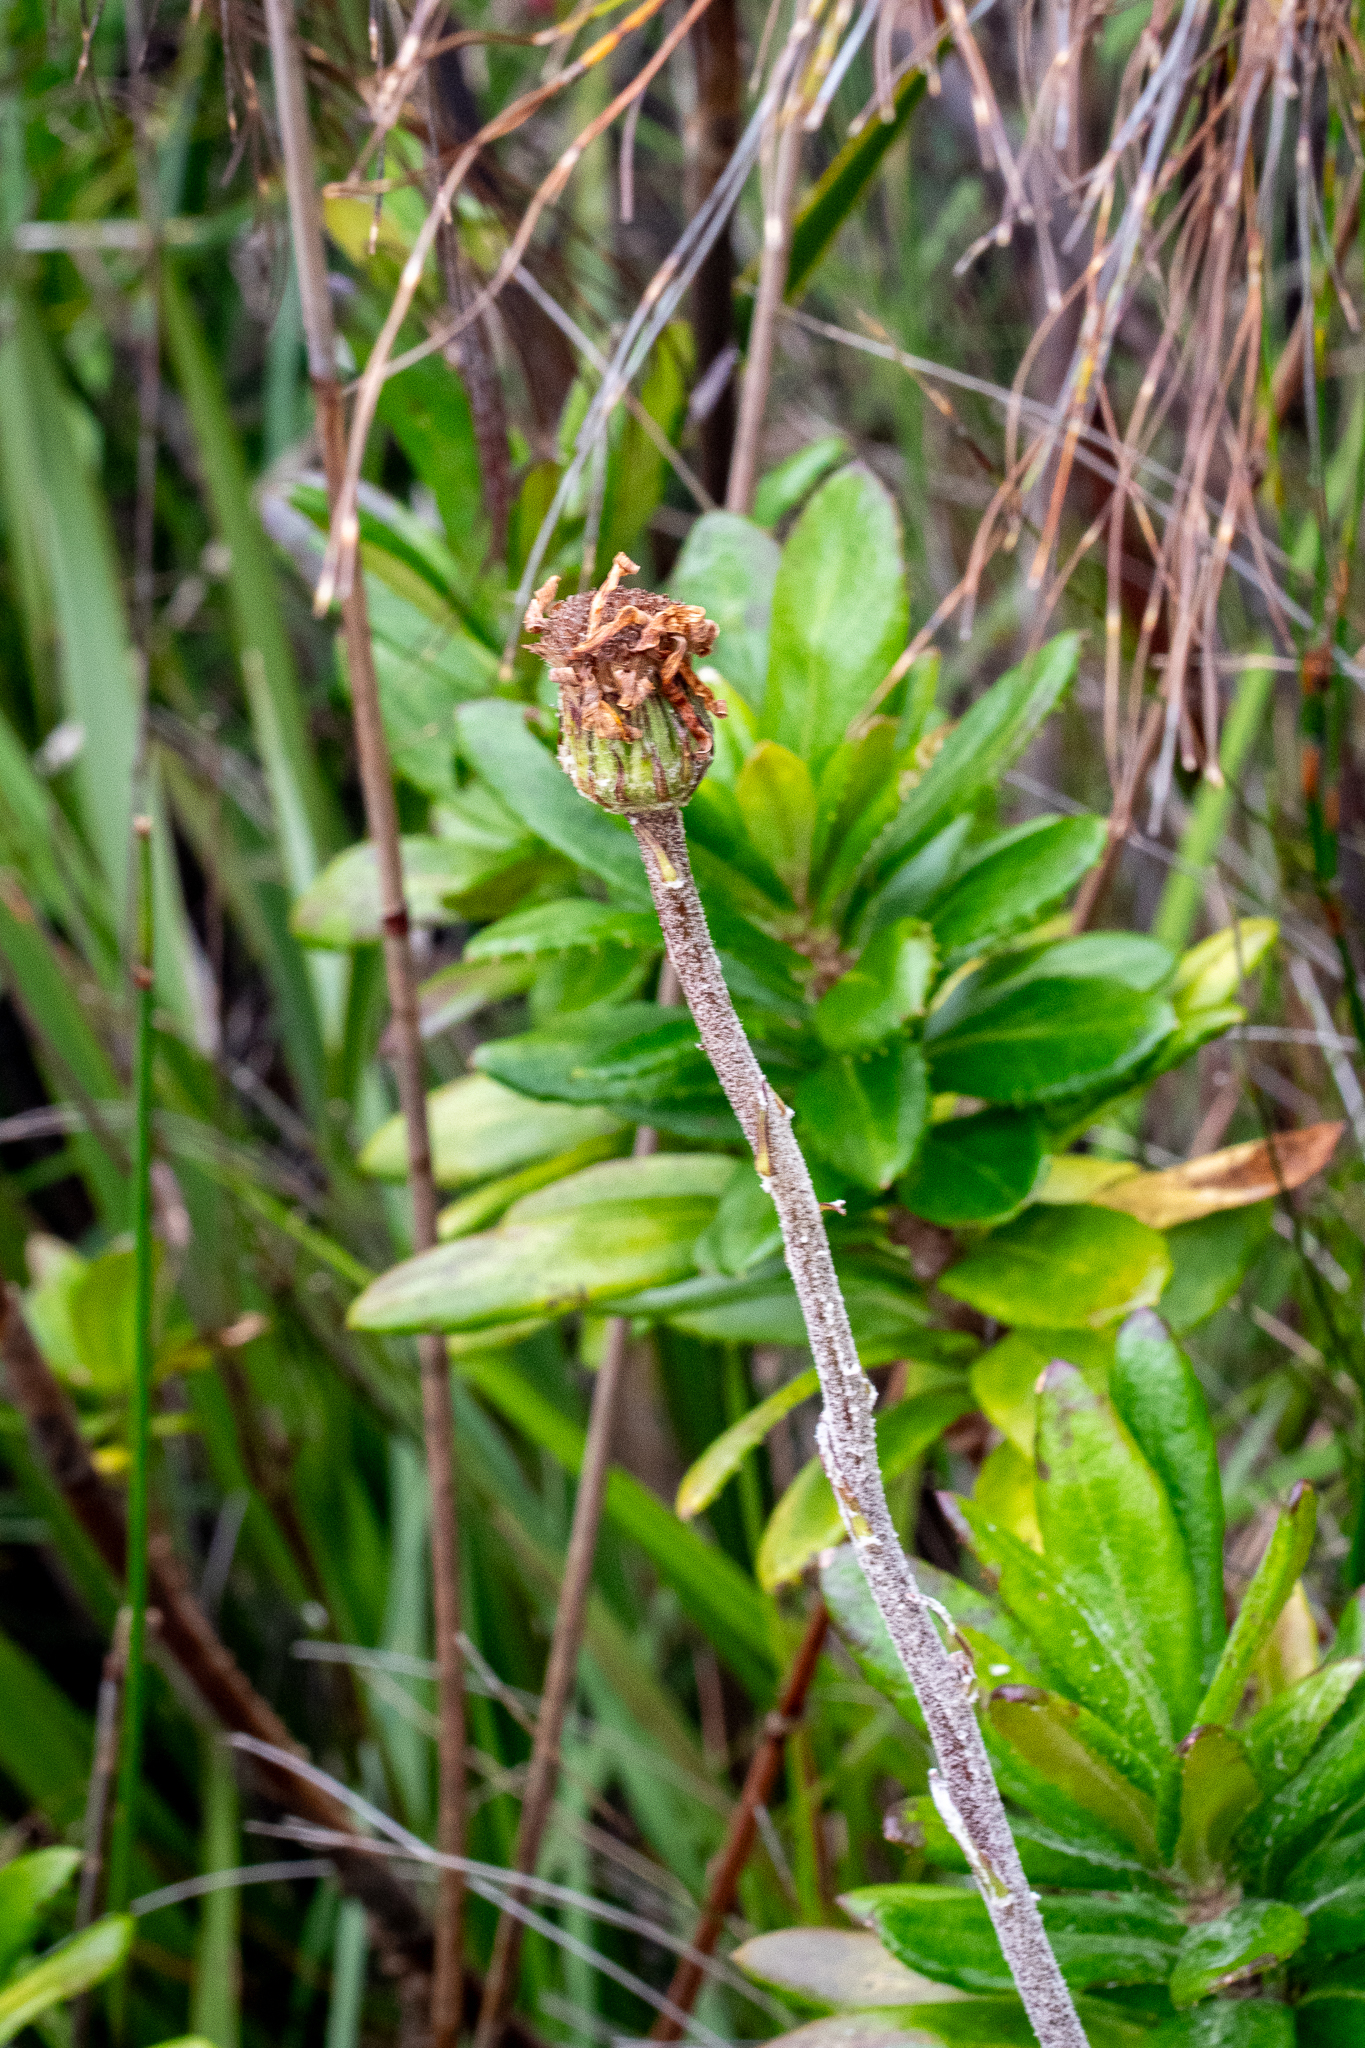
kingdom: Plantae
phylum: Tracheophyta
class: Magnoliopsida
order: Asterales
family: Asteraceae
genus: Capelio
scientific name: Capelio tabularis
